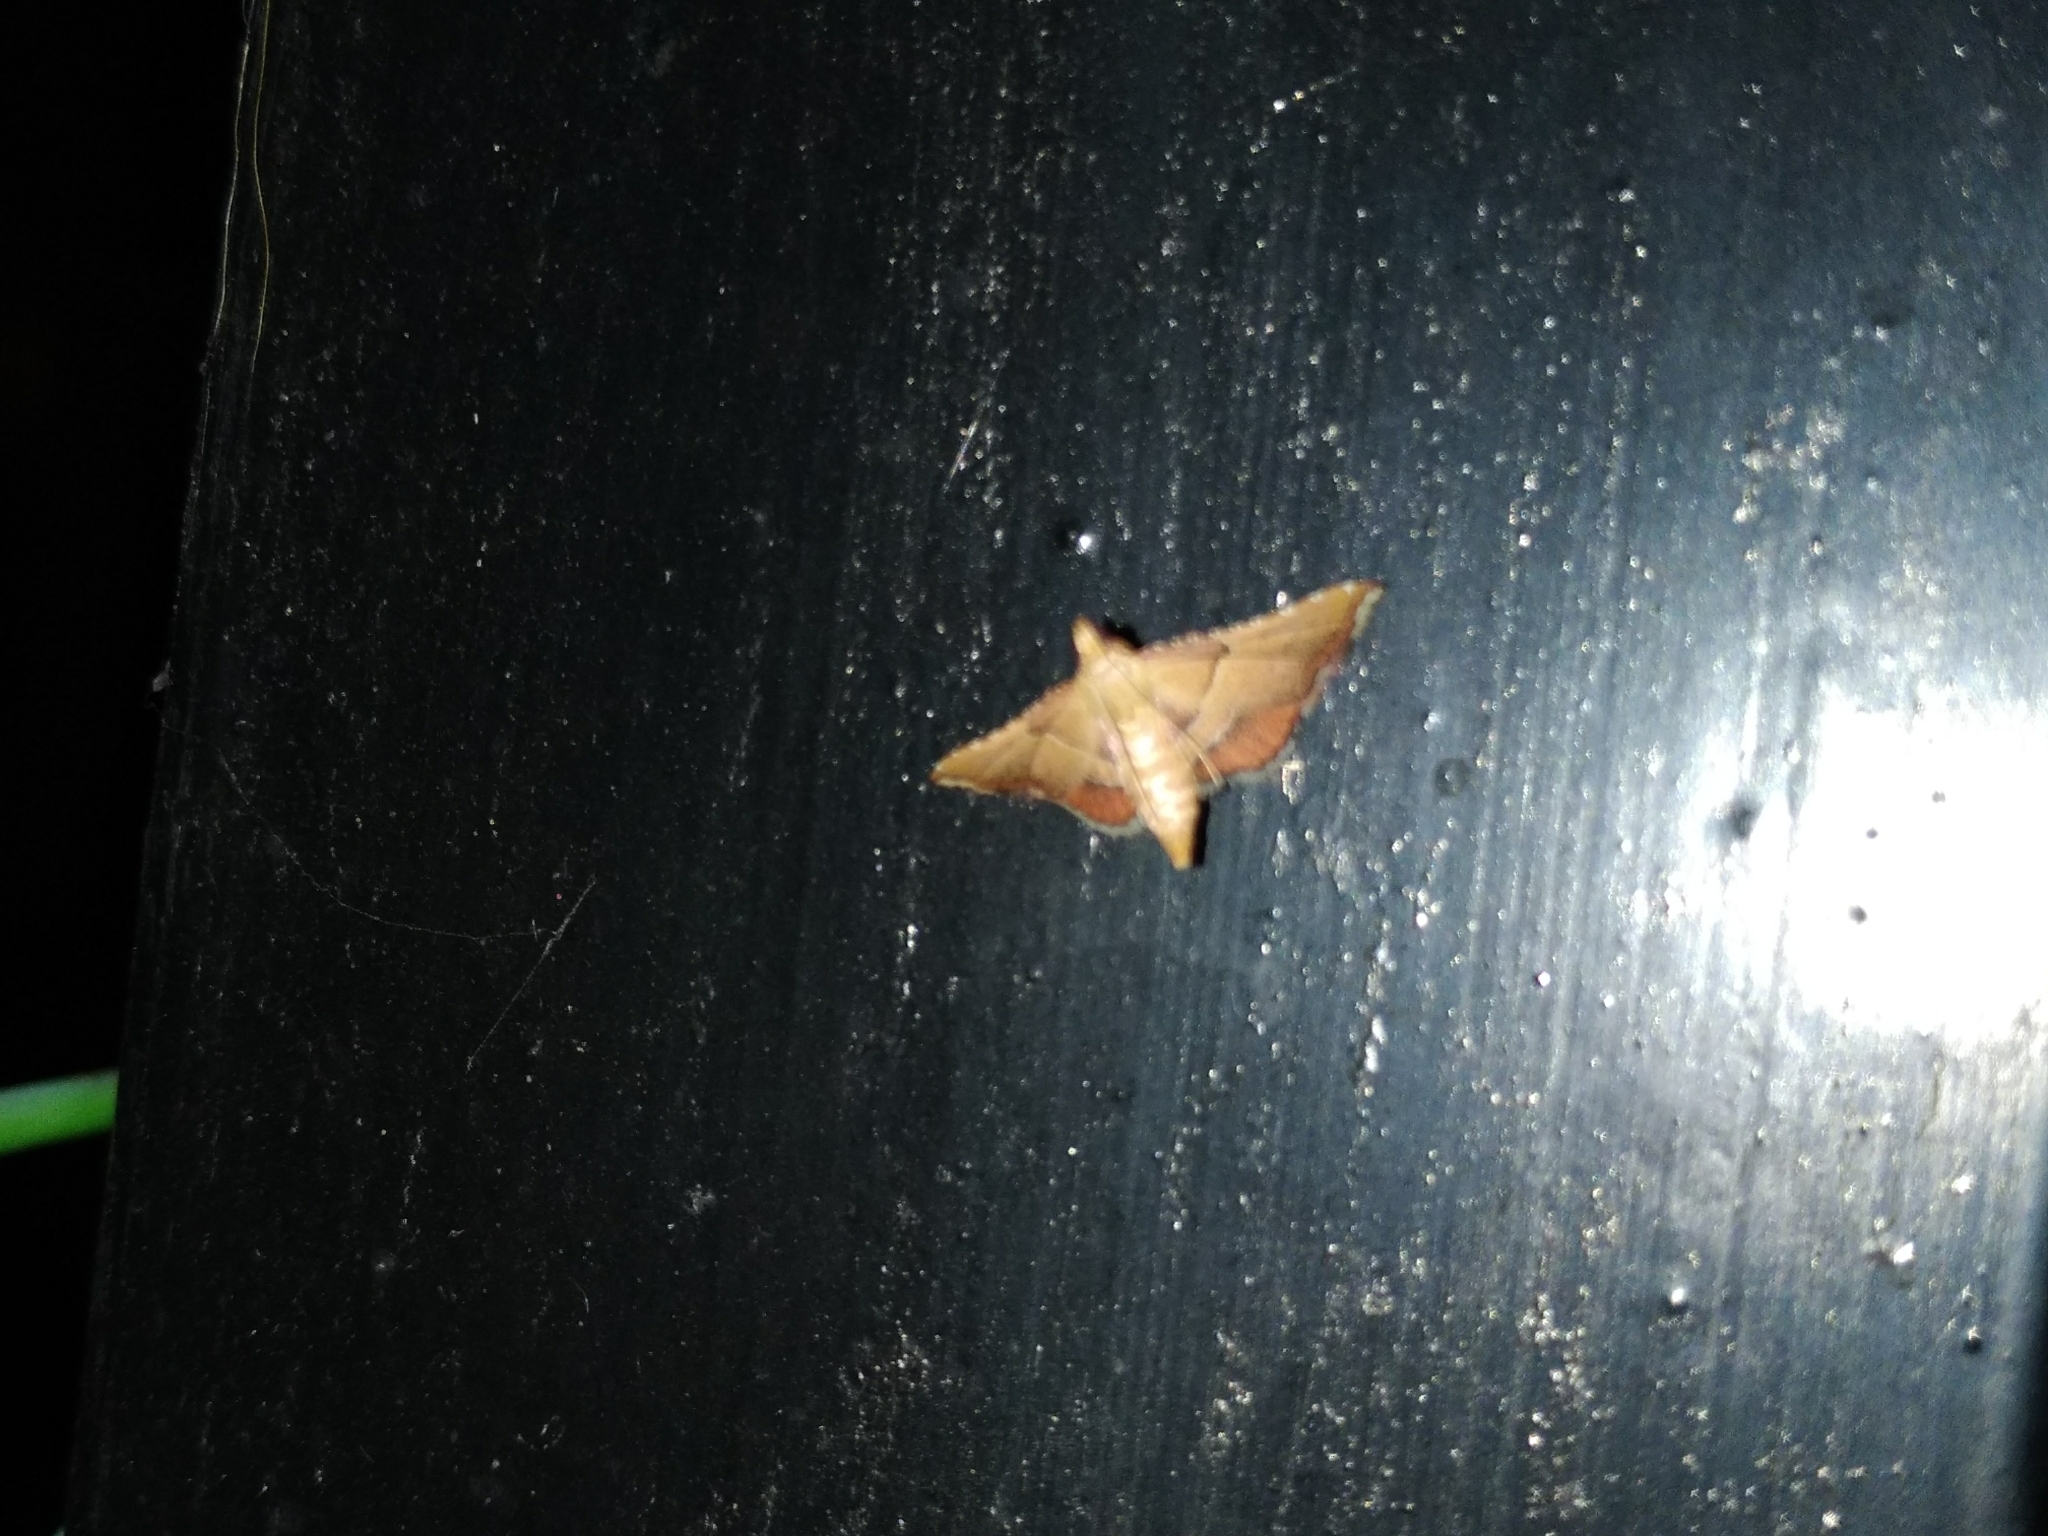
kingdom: Animalia
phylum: Arthropoda
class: Insecta
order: Lepidoptera
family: Pyralidae
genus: Endotricha
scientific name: Endotricha flammealis
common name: Rosy tabby
